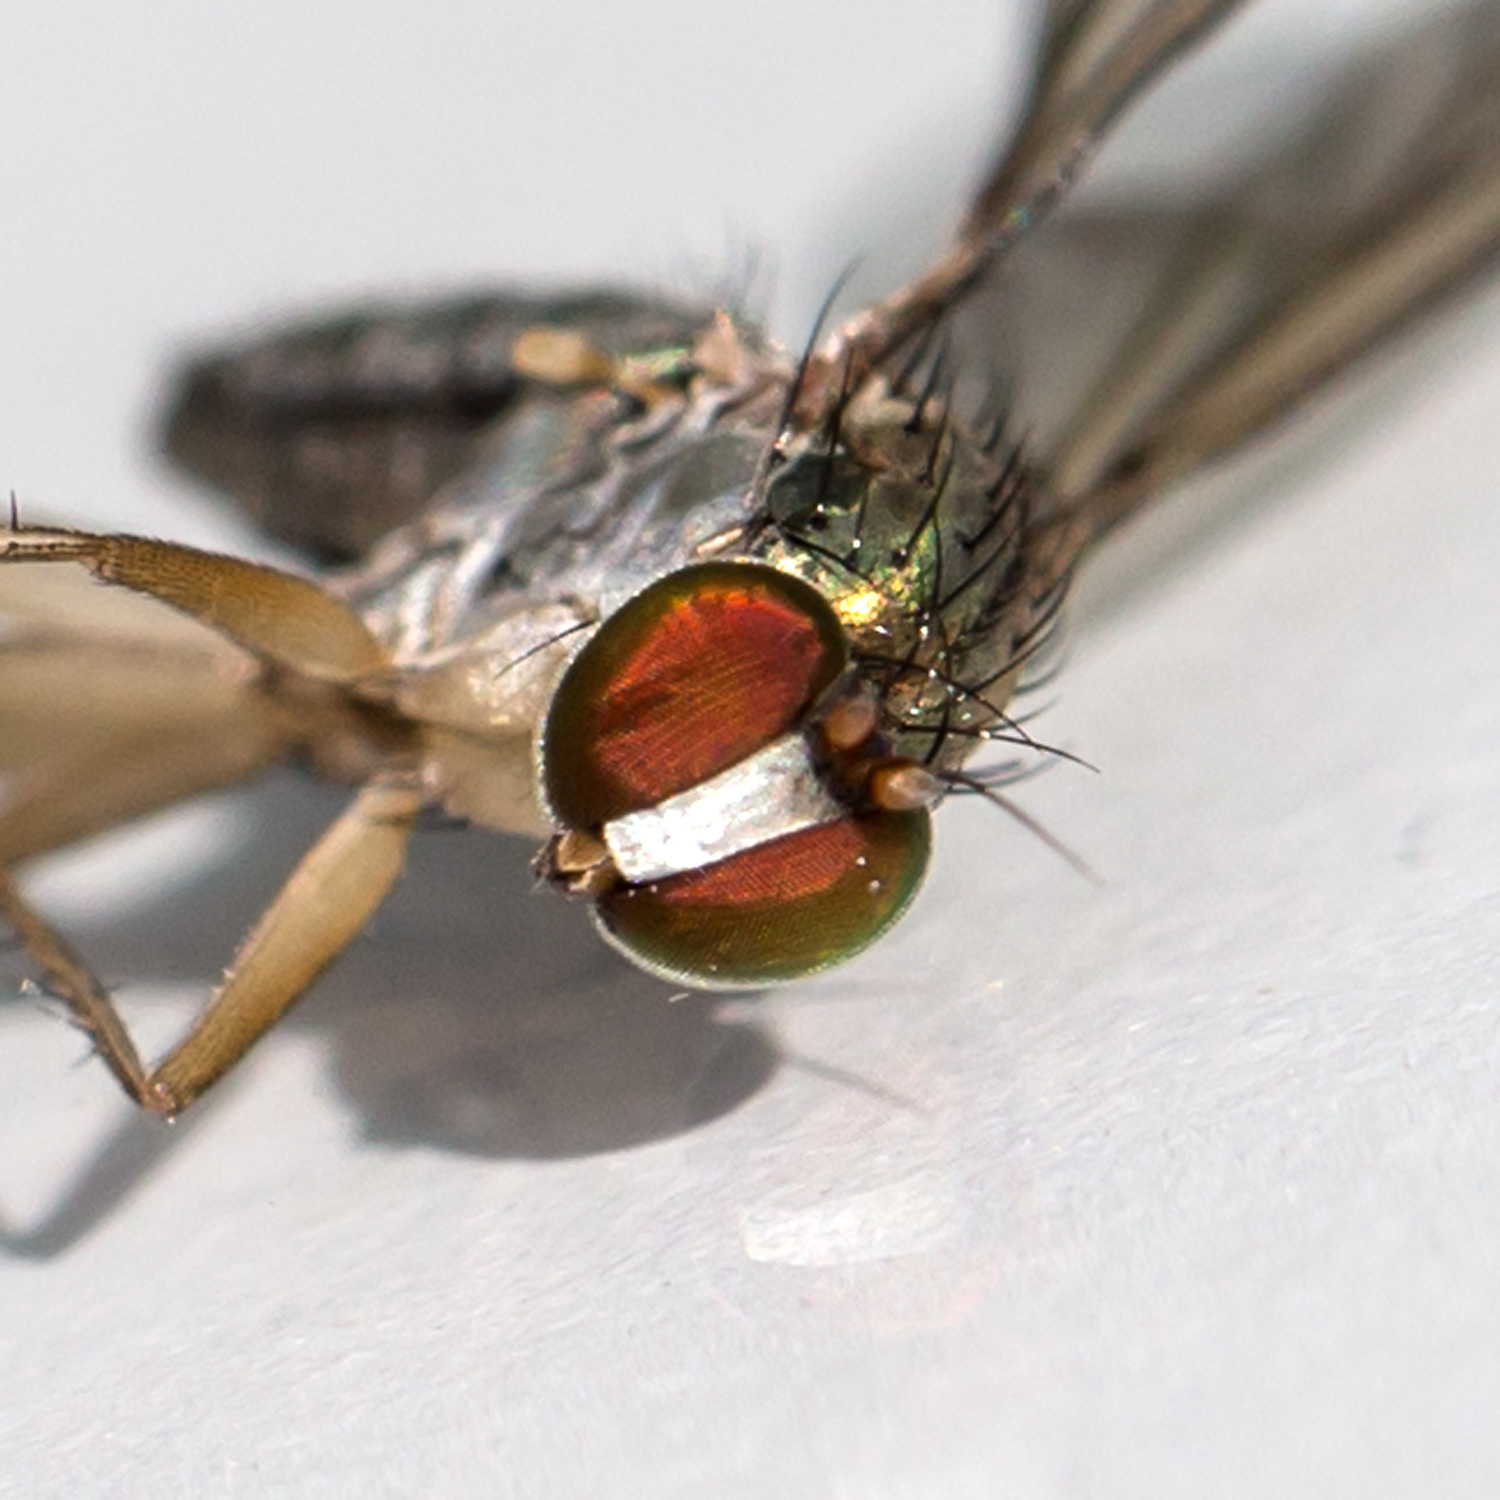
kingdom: Animalia
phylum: Arthropoda
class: Insecta
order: Diptera
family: Dolichopodidae
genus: Dolichopus
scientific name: Dolichopus longipennis
